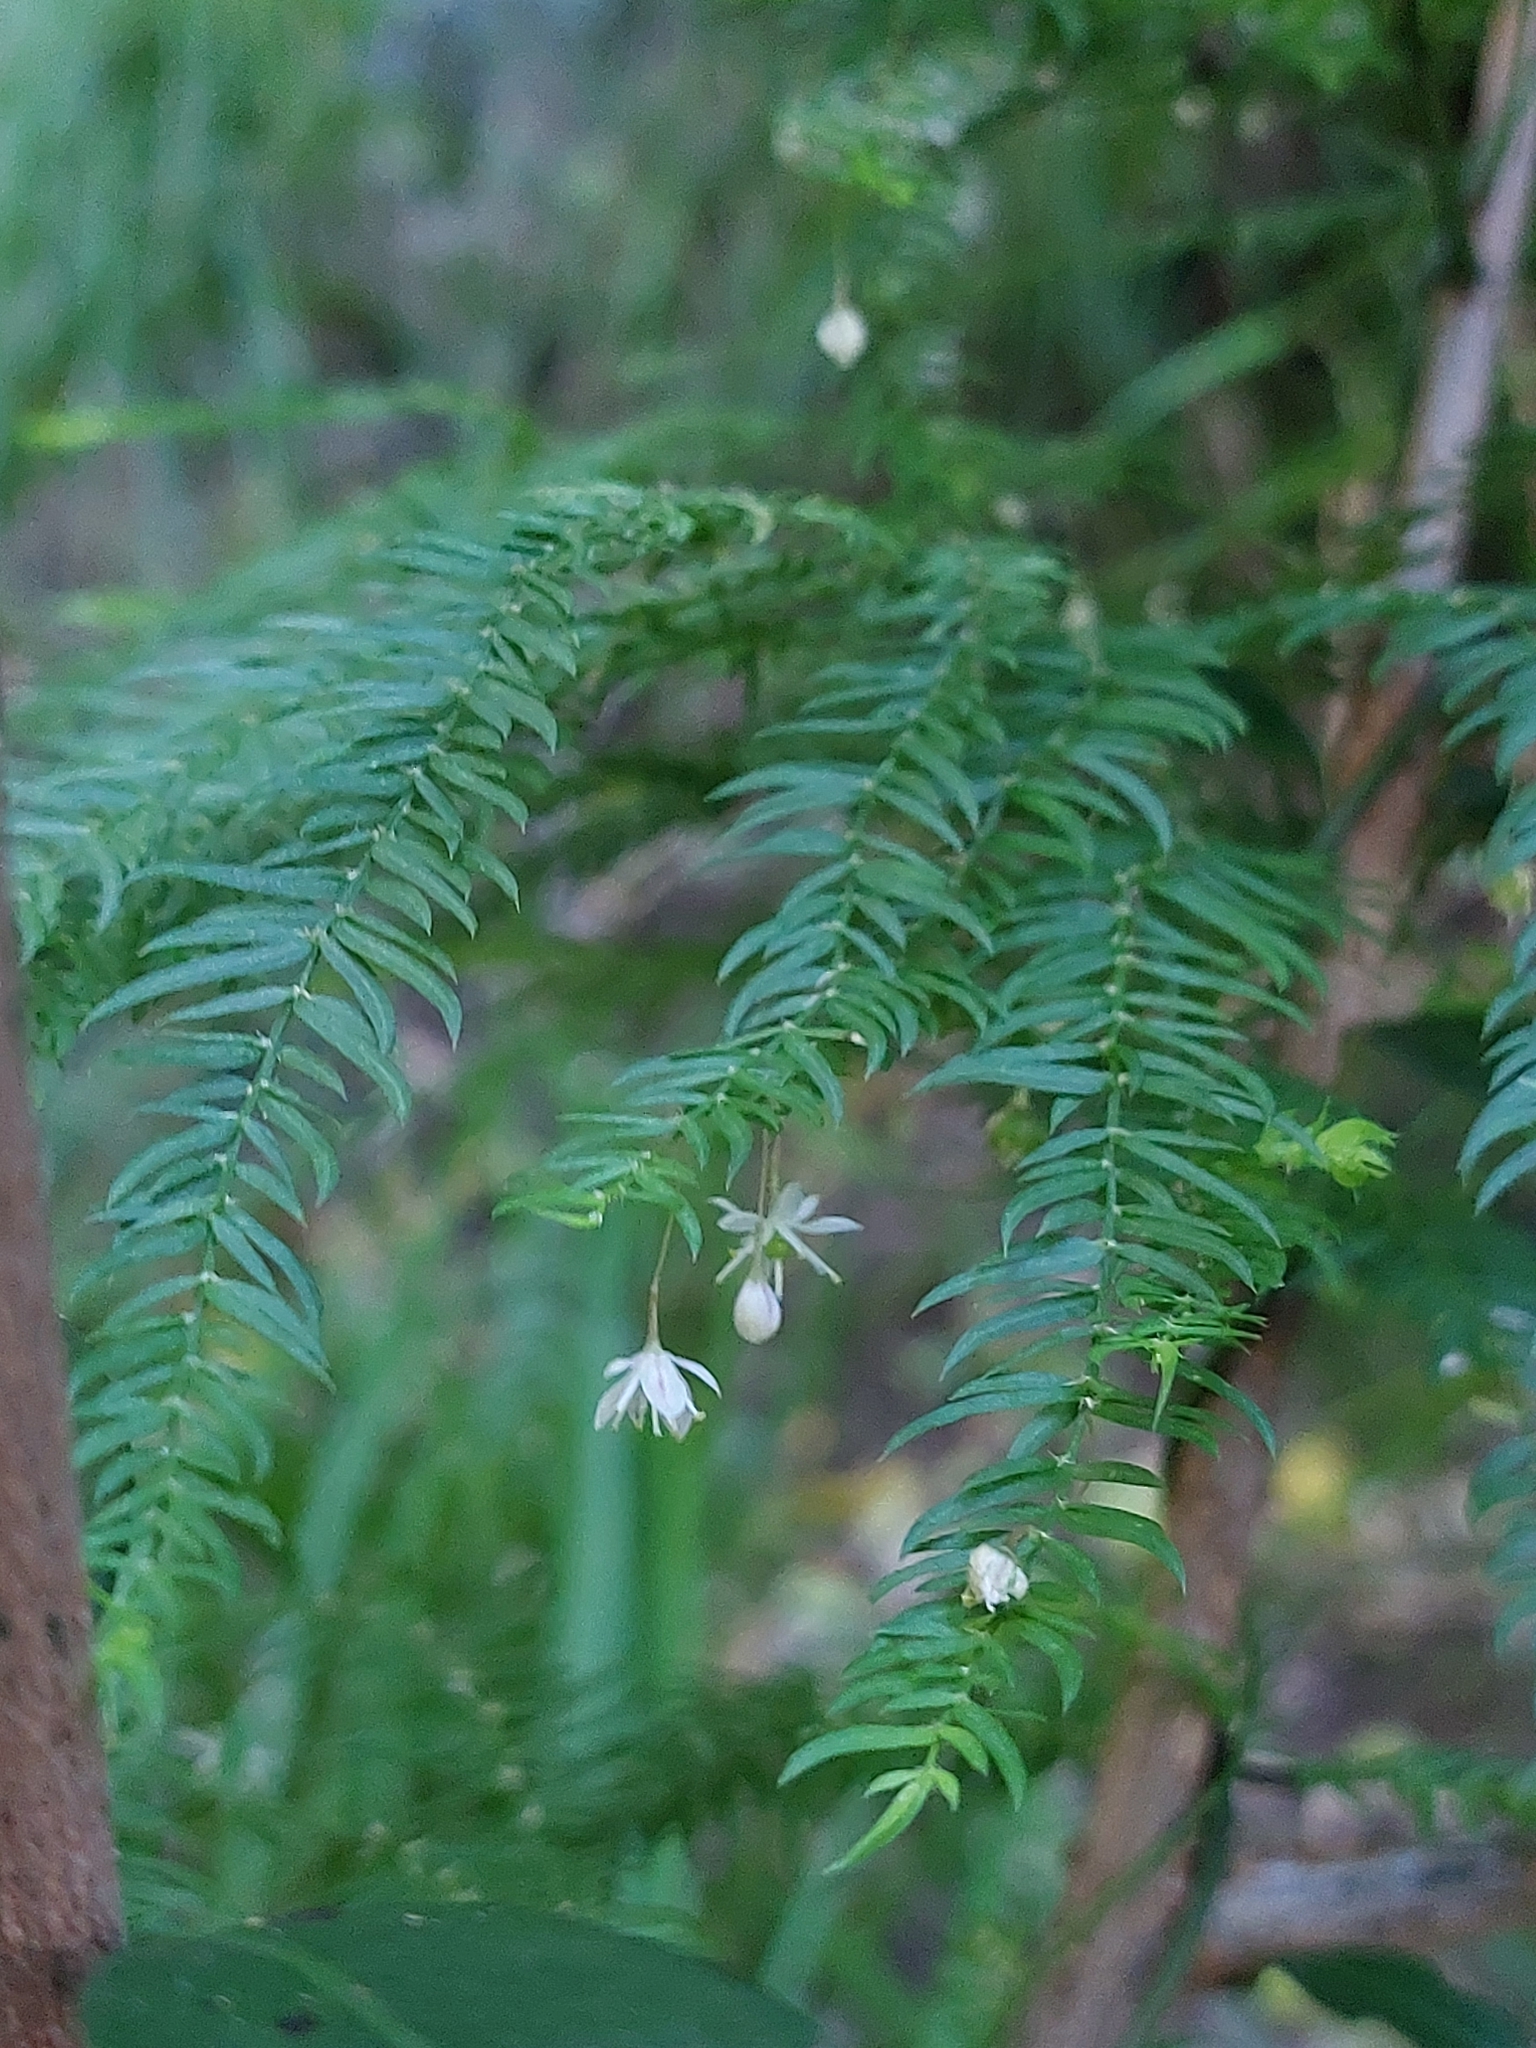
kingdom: Plantae
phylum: Tracheophyta
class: Liliopsida
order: Asparagales
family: Asparagaceae
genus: Asparagus
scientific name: Asparagus scandens
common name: Asparagus-fern
